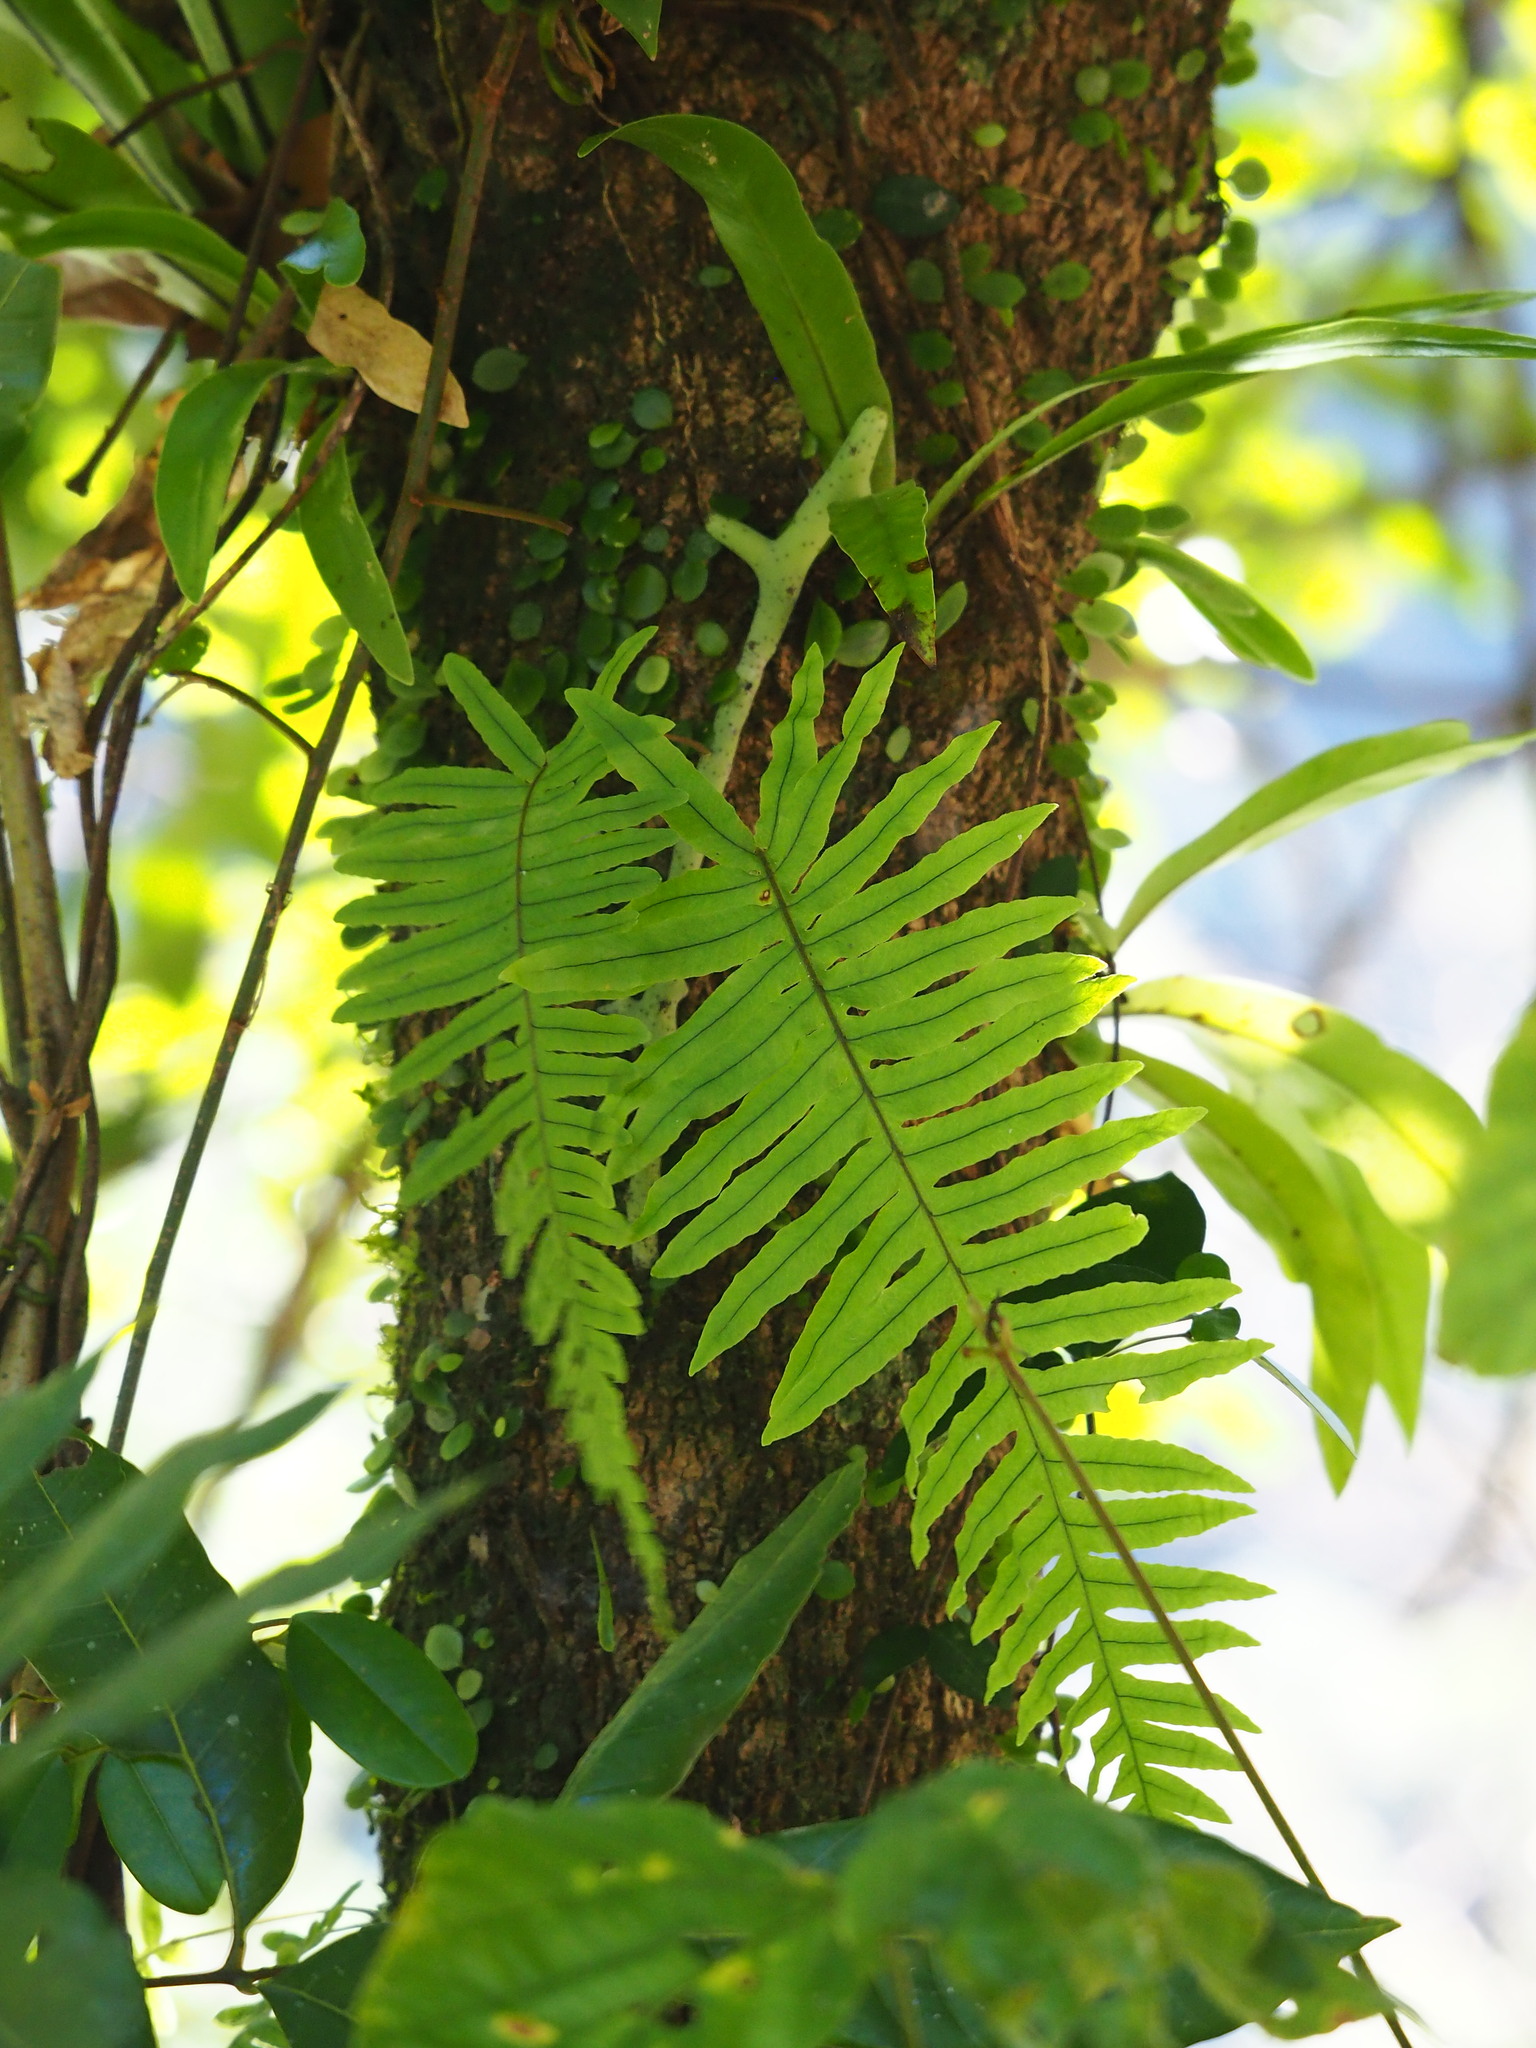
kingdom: Plantae
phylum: Tracheophyta
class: Polypodiopsida
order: Polypodiales
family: Polypodiaceae
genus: Goniophlebium
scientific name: Goniophlebium formosanum
